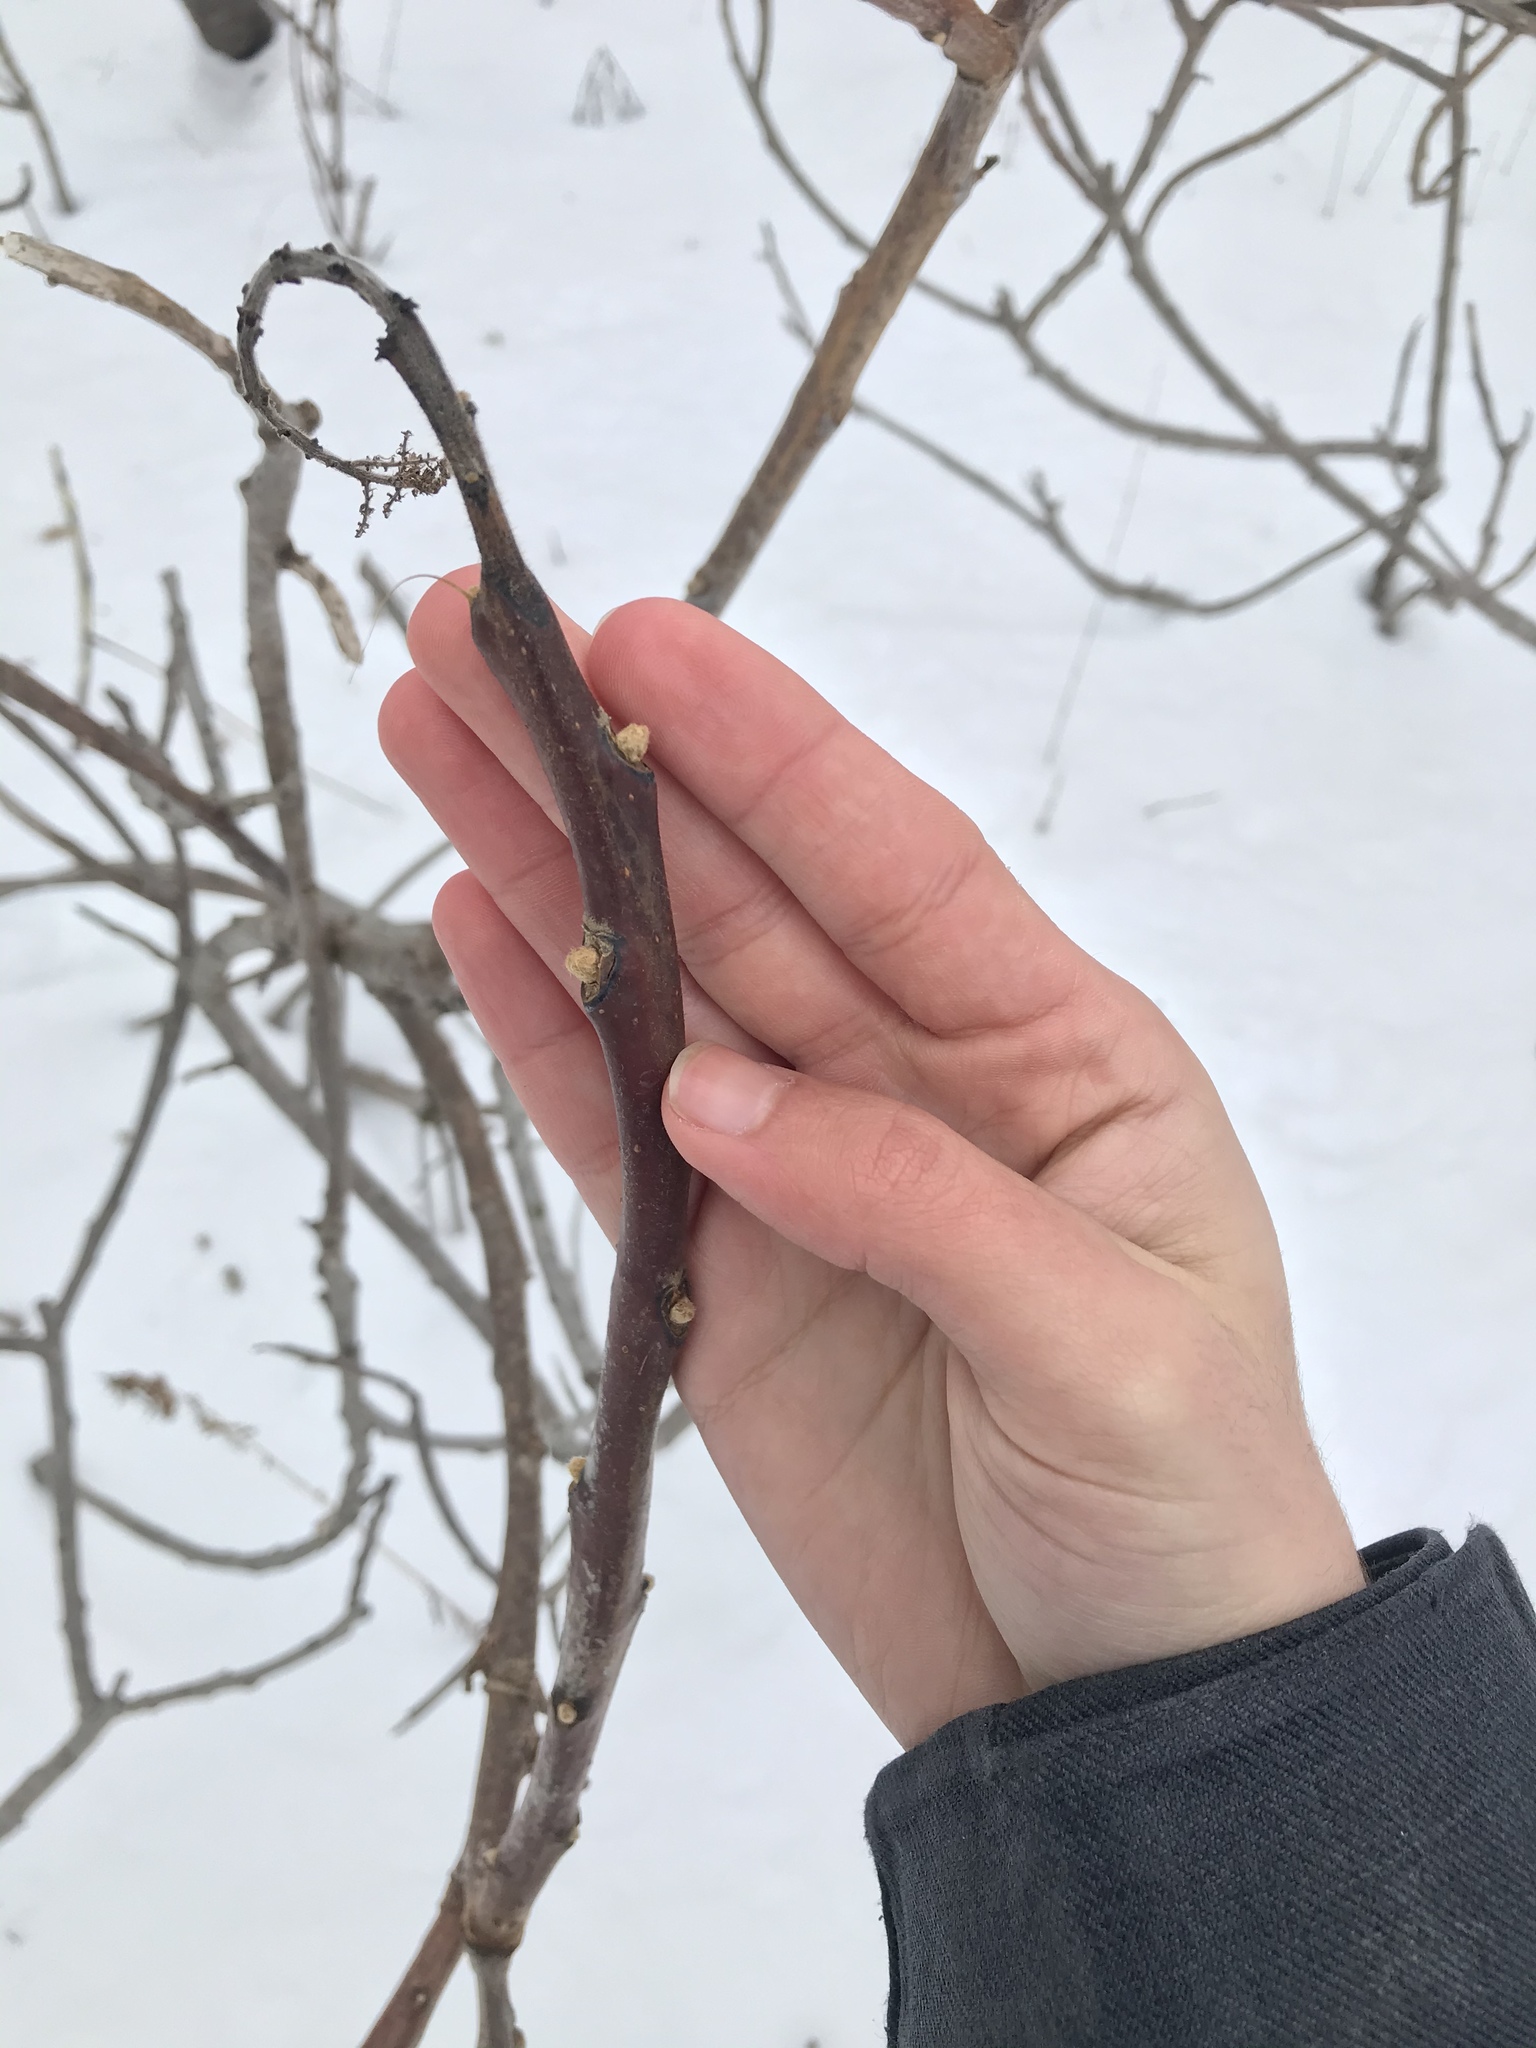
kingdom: Plantae
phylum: Tracheophyta
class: Magnoliopsida
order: Sapindales
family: Anacardiaceae
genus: Rhus
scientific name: Rhus glabra
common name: Scarlet sumac
